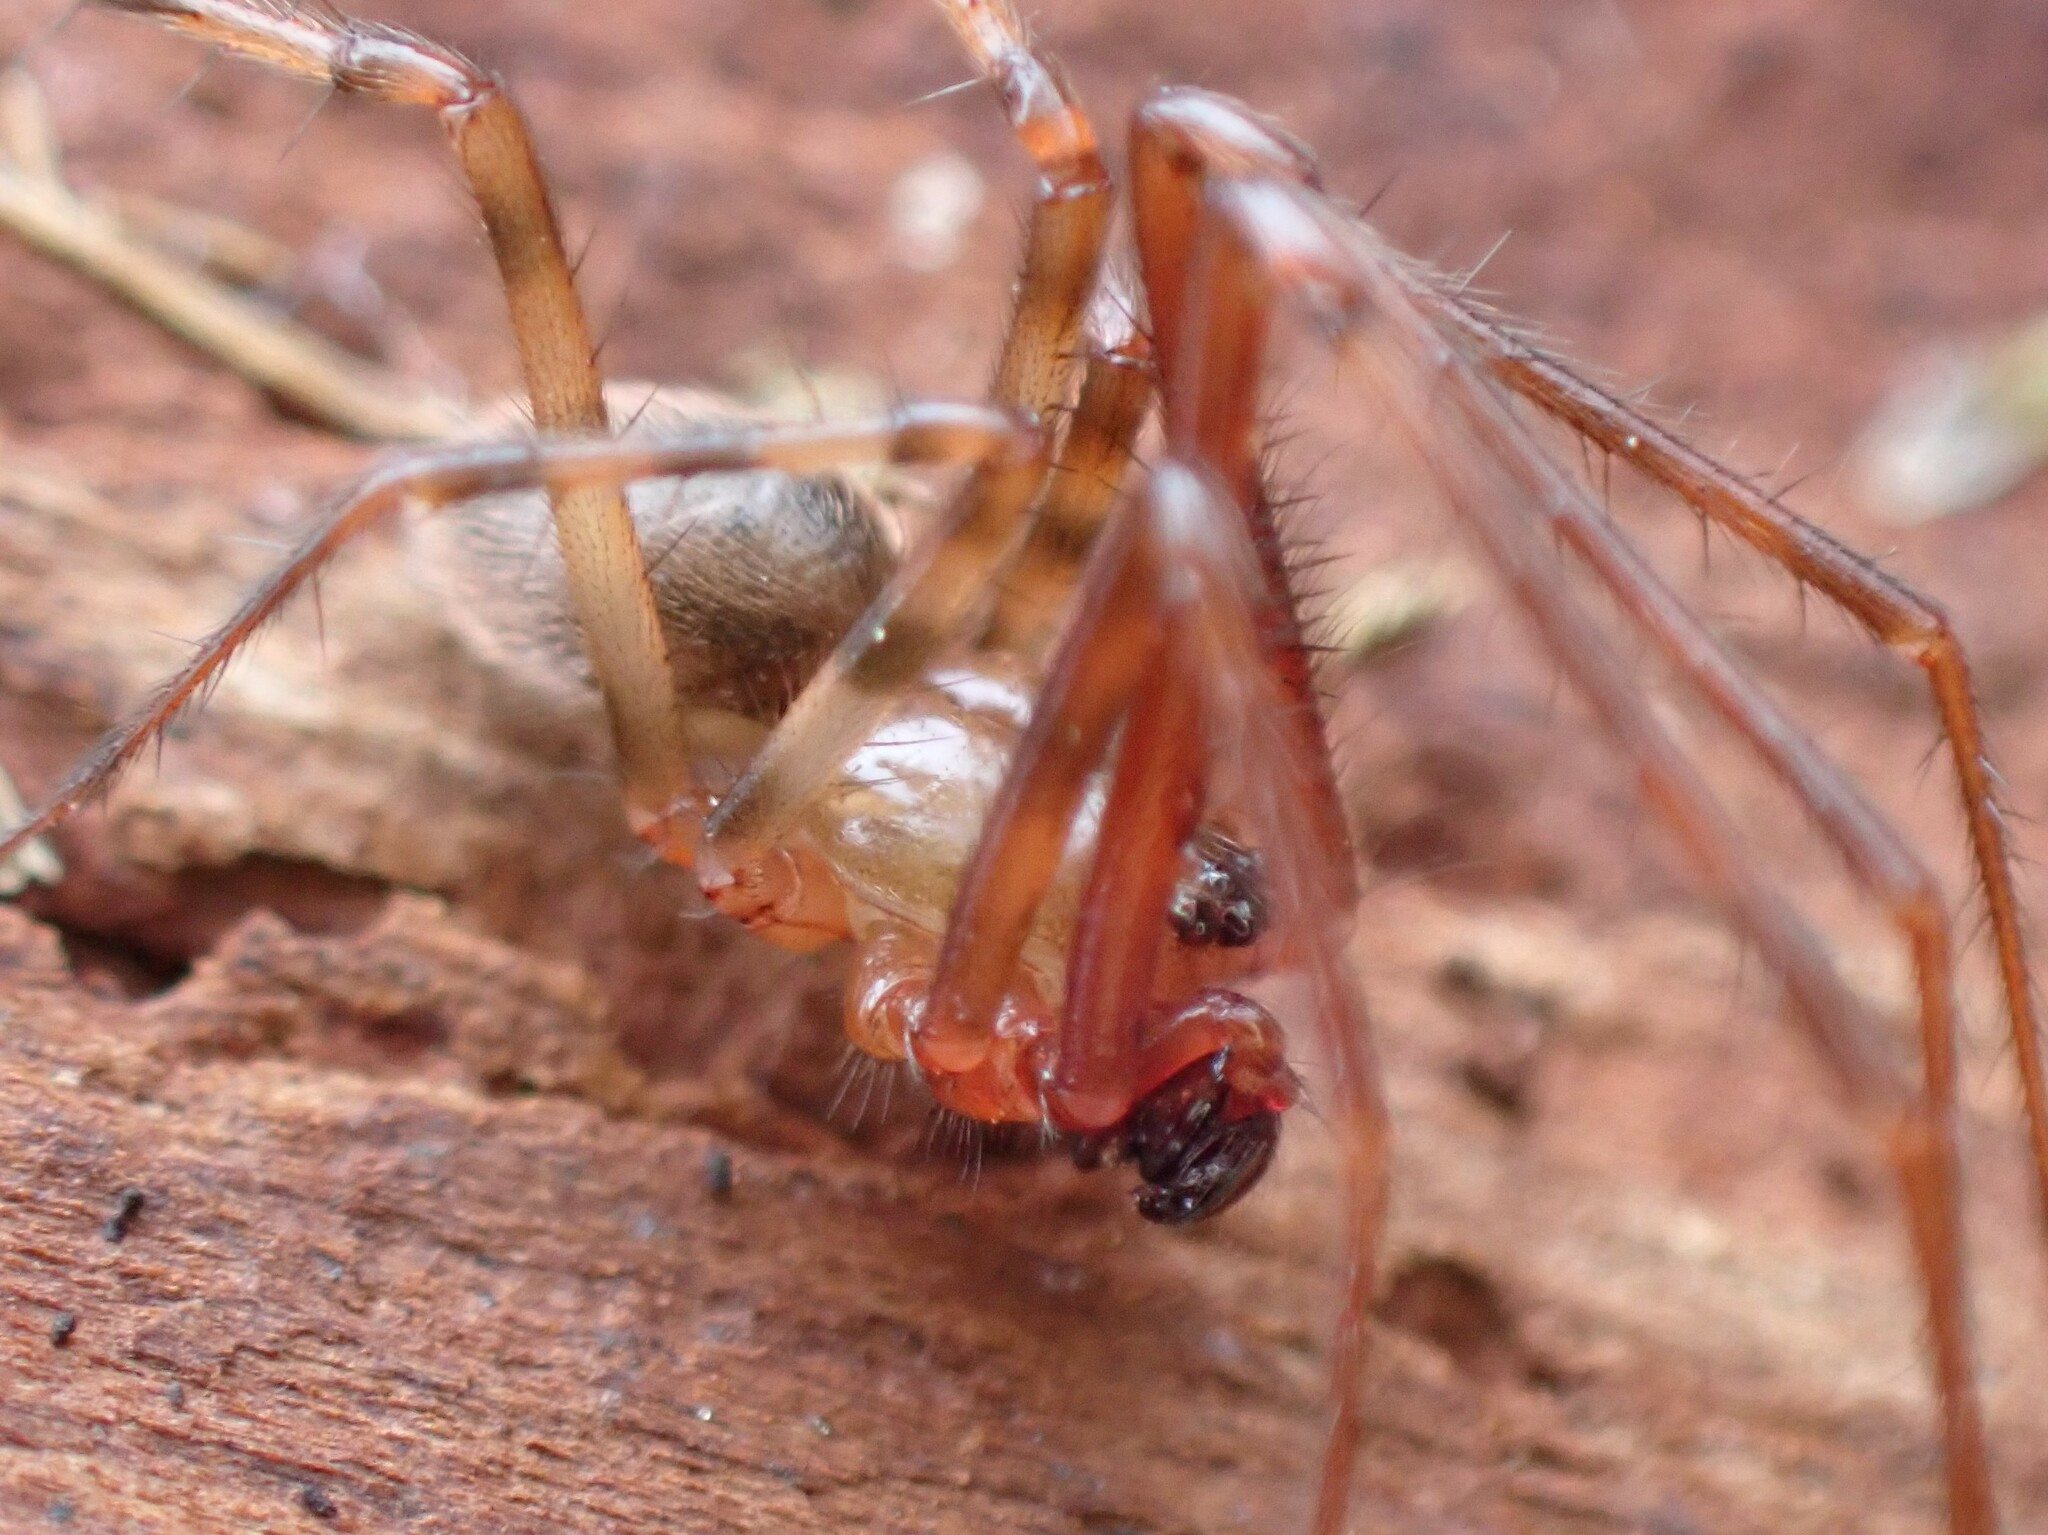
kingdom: Animalia
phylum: Arthropoda
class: Arachnida
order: Araneae
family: Pimoidae
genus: Pimoa
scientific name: Pimoa altioculata
